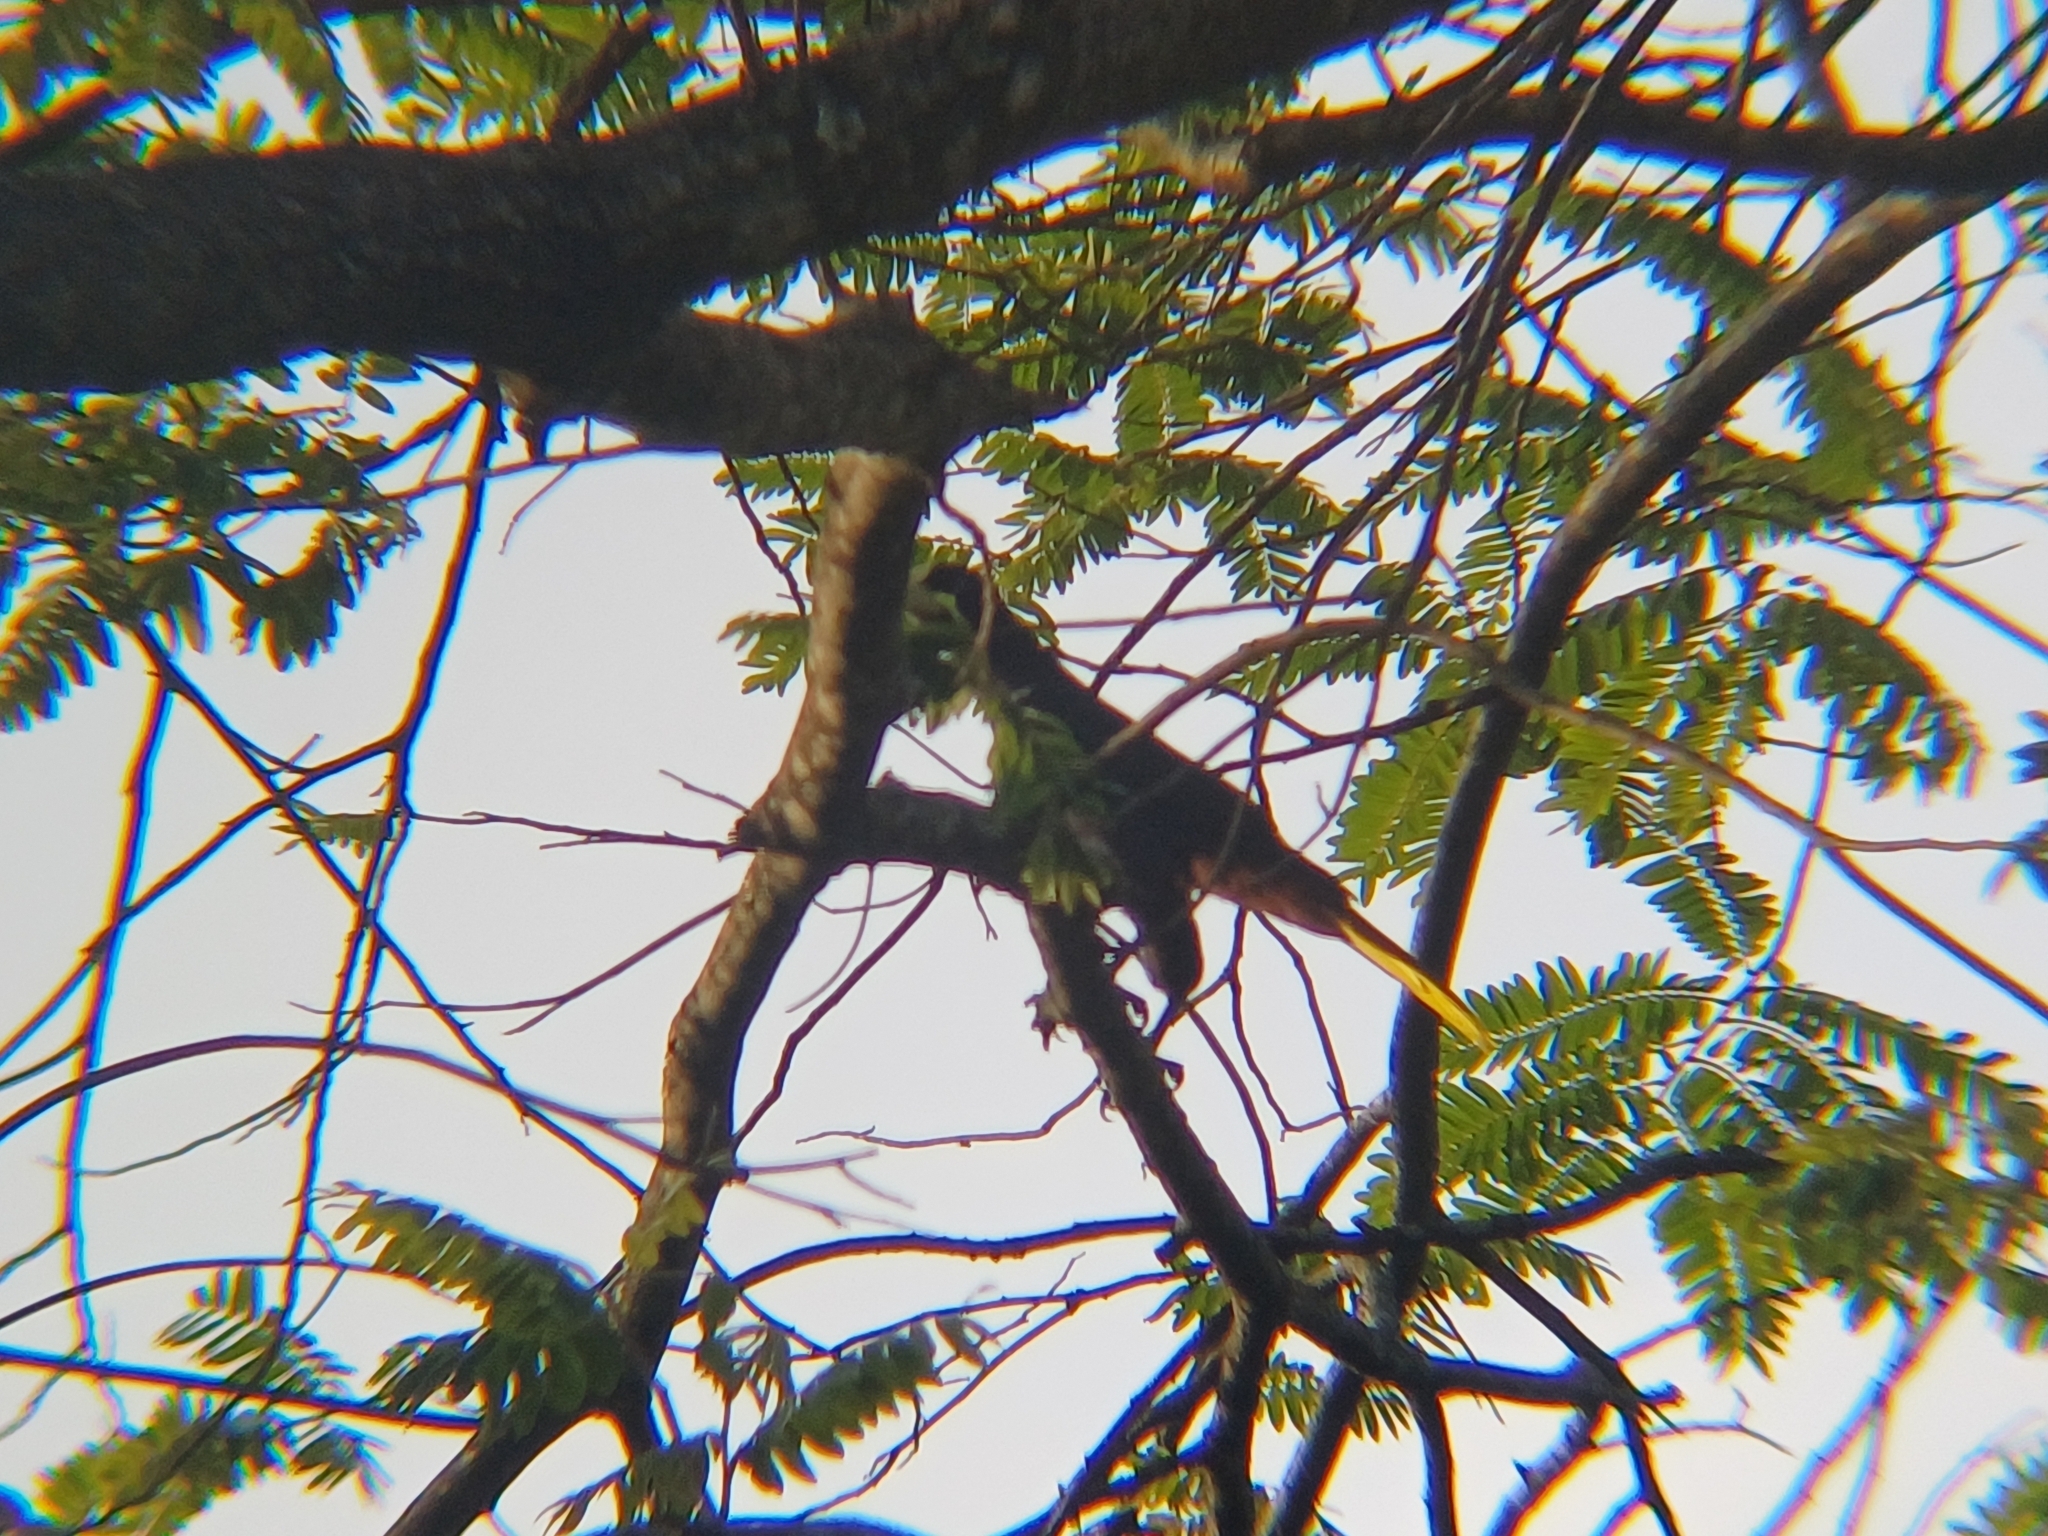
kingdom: Animalia
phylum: Chordata
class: Aves
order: Passeriformes
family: Icteridae
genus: Psarocolius
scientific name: Psarocolius decumanus
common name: Crested oropendola
